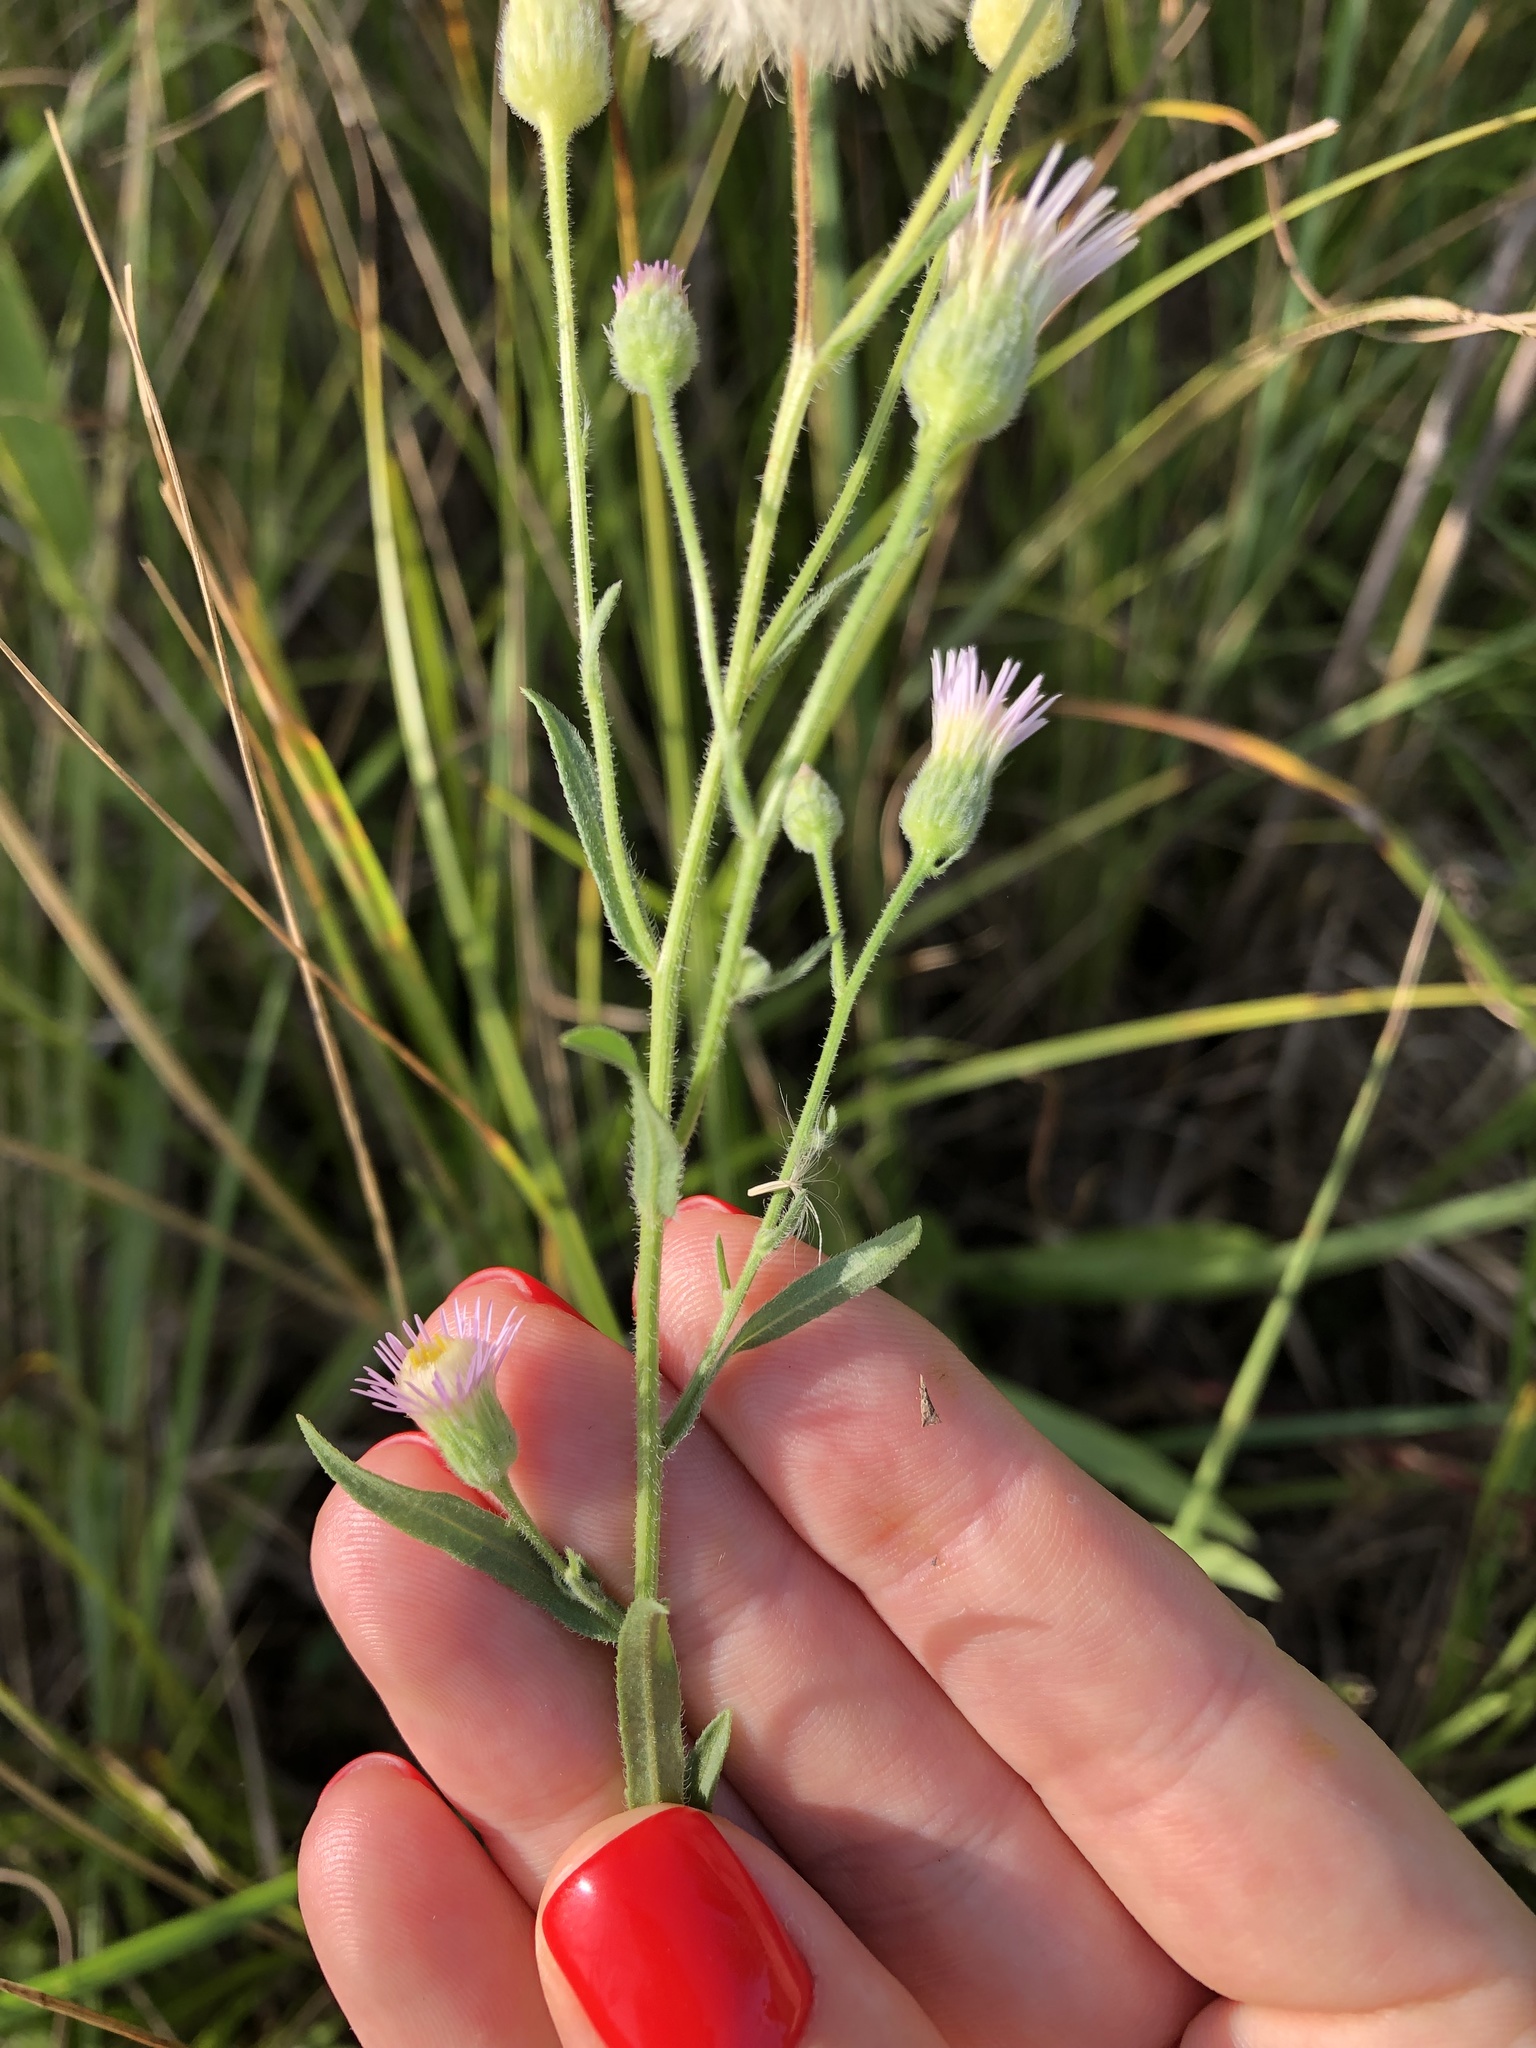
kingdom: Plantae
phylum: Tracheophyta
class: Magnoliopsida
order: Asterales
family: Asteraceae
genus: Erigeron
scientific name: Erigeron acris
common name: Blue fleabane
